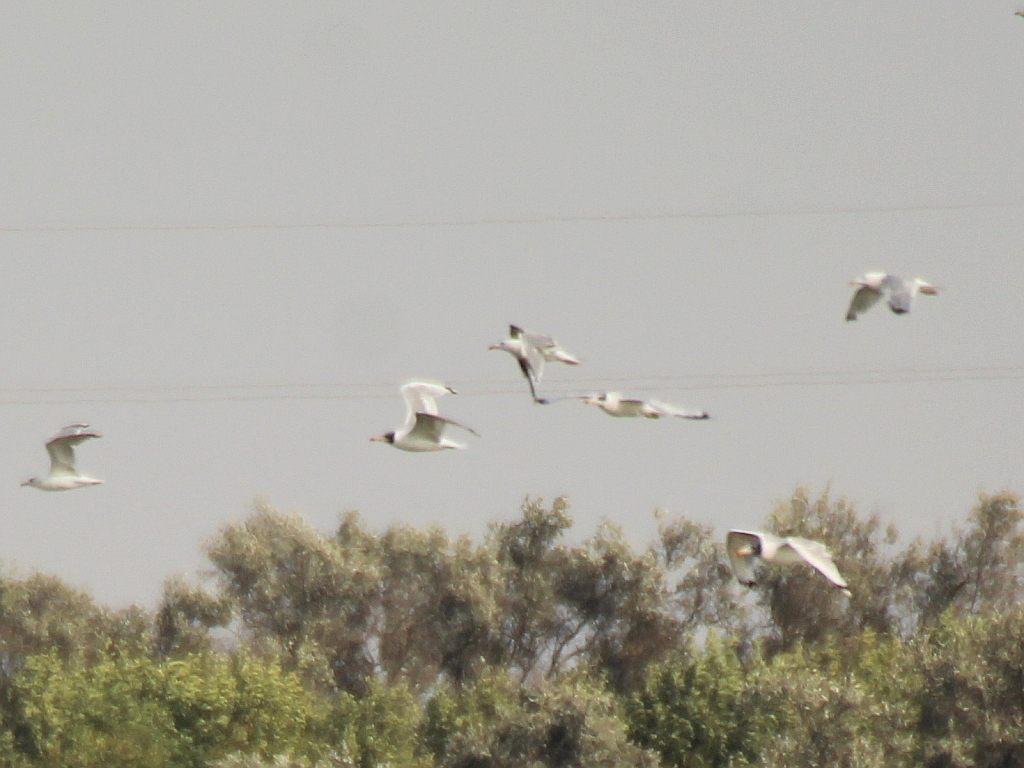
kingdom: Animalia
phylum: Chordata
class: Aves
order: Charadriiformes
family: Laridae
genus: Ichthyaetus
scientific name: Ichthyaetus ichthyaetus
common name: Pallas's gull
